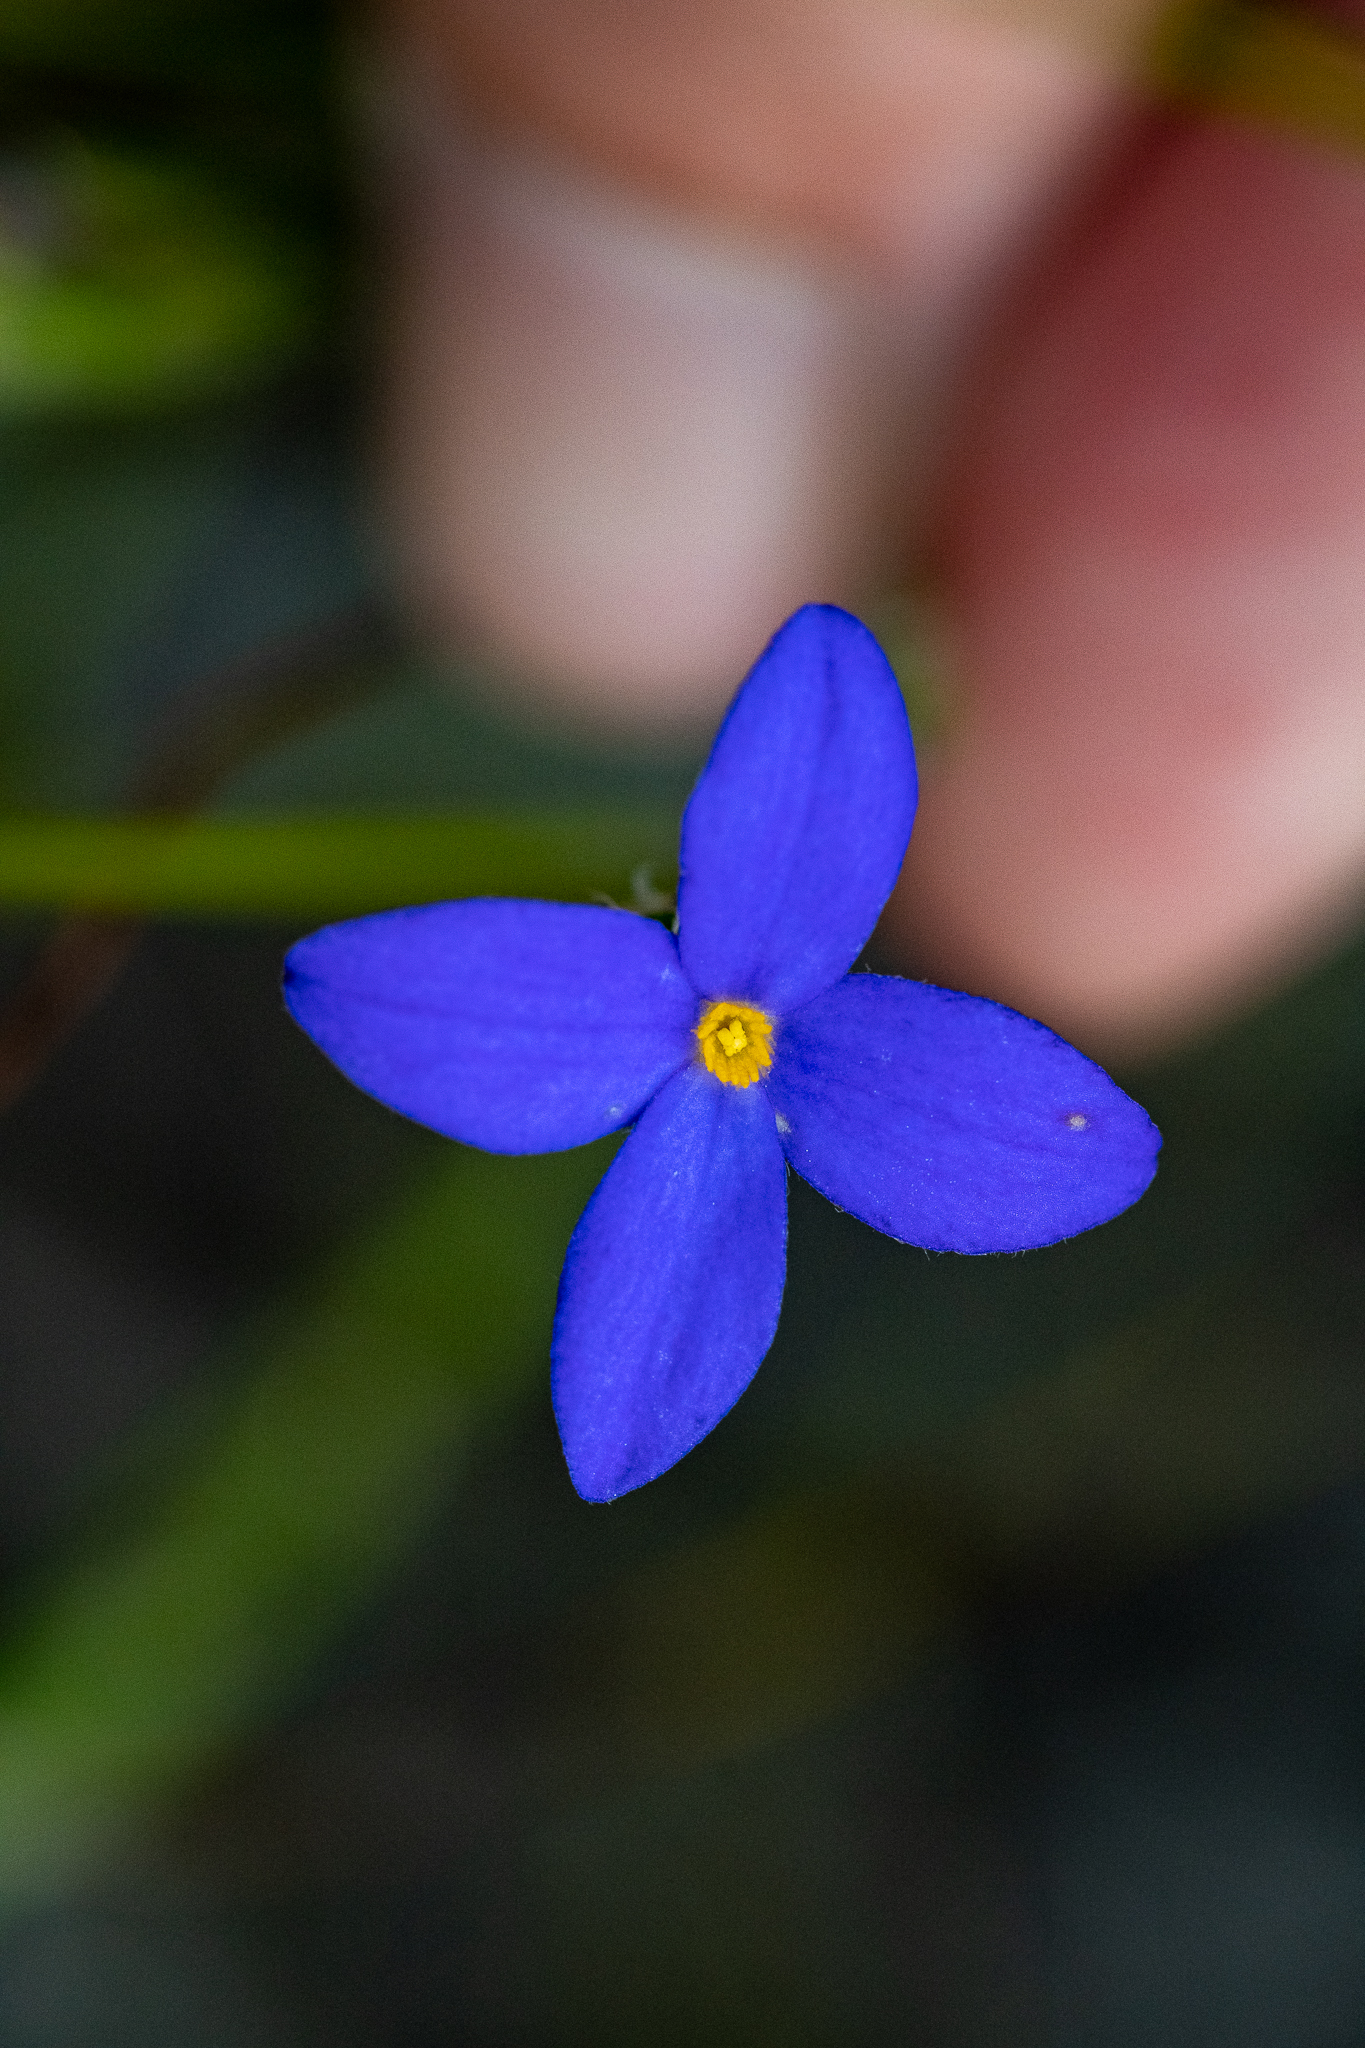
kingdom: Plantae
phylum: Tracheophyta
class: Magnoliopsida
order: Malvales
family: Thymelaeaceae
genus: Gnidia
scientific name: Gnidia penicillata
